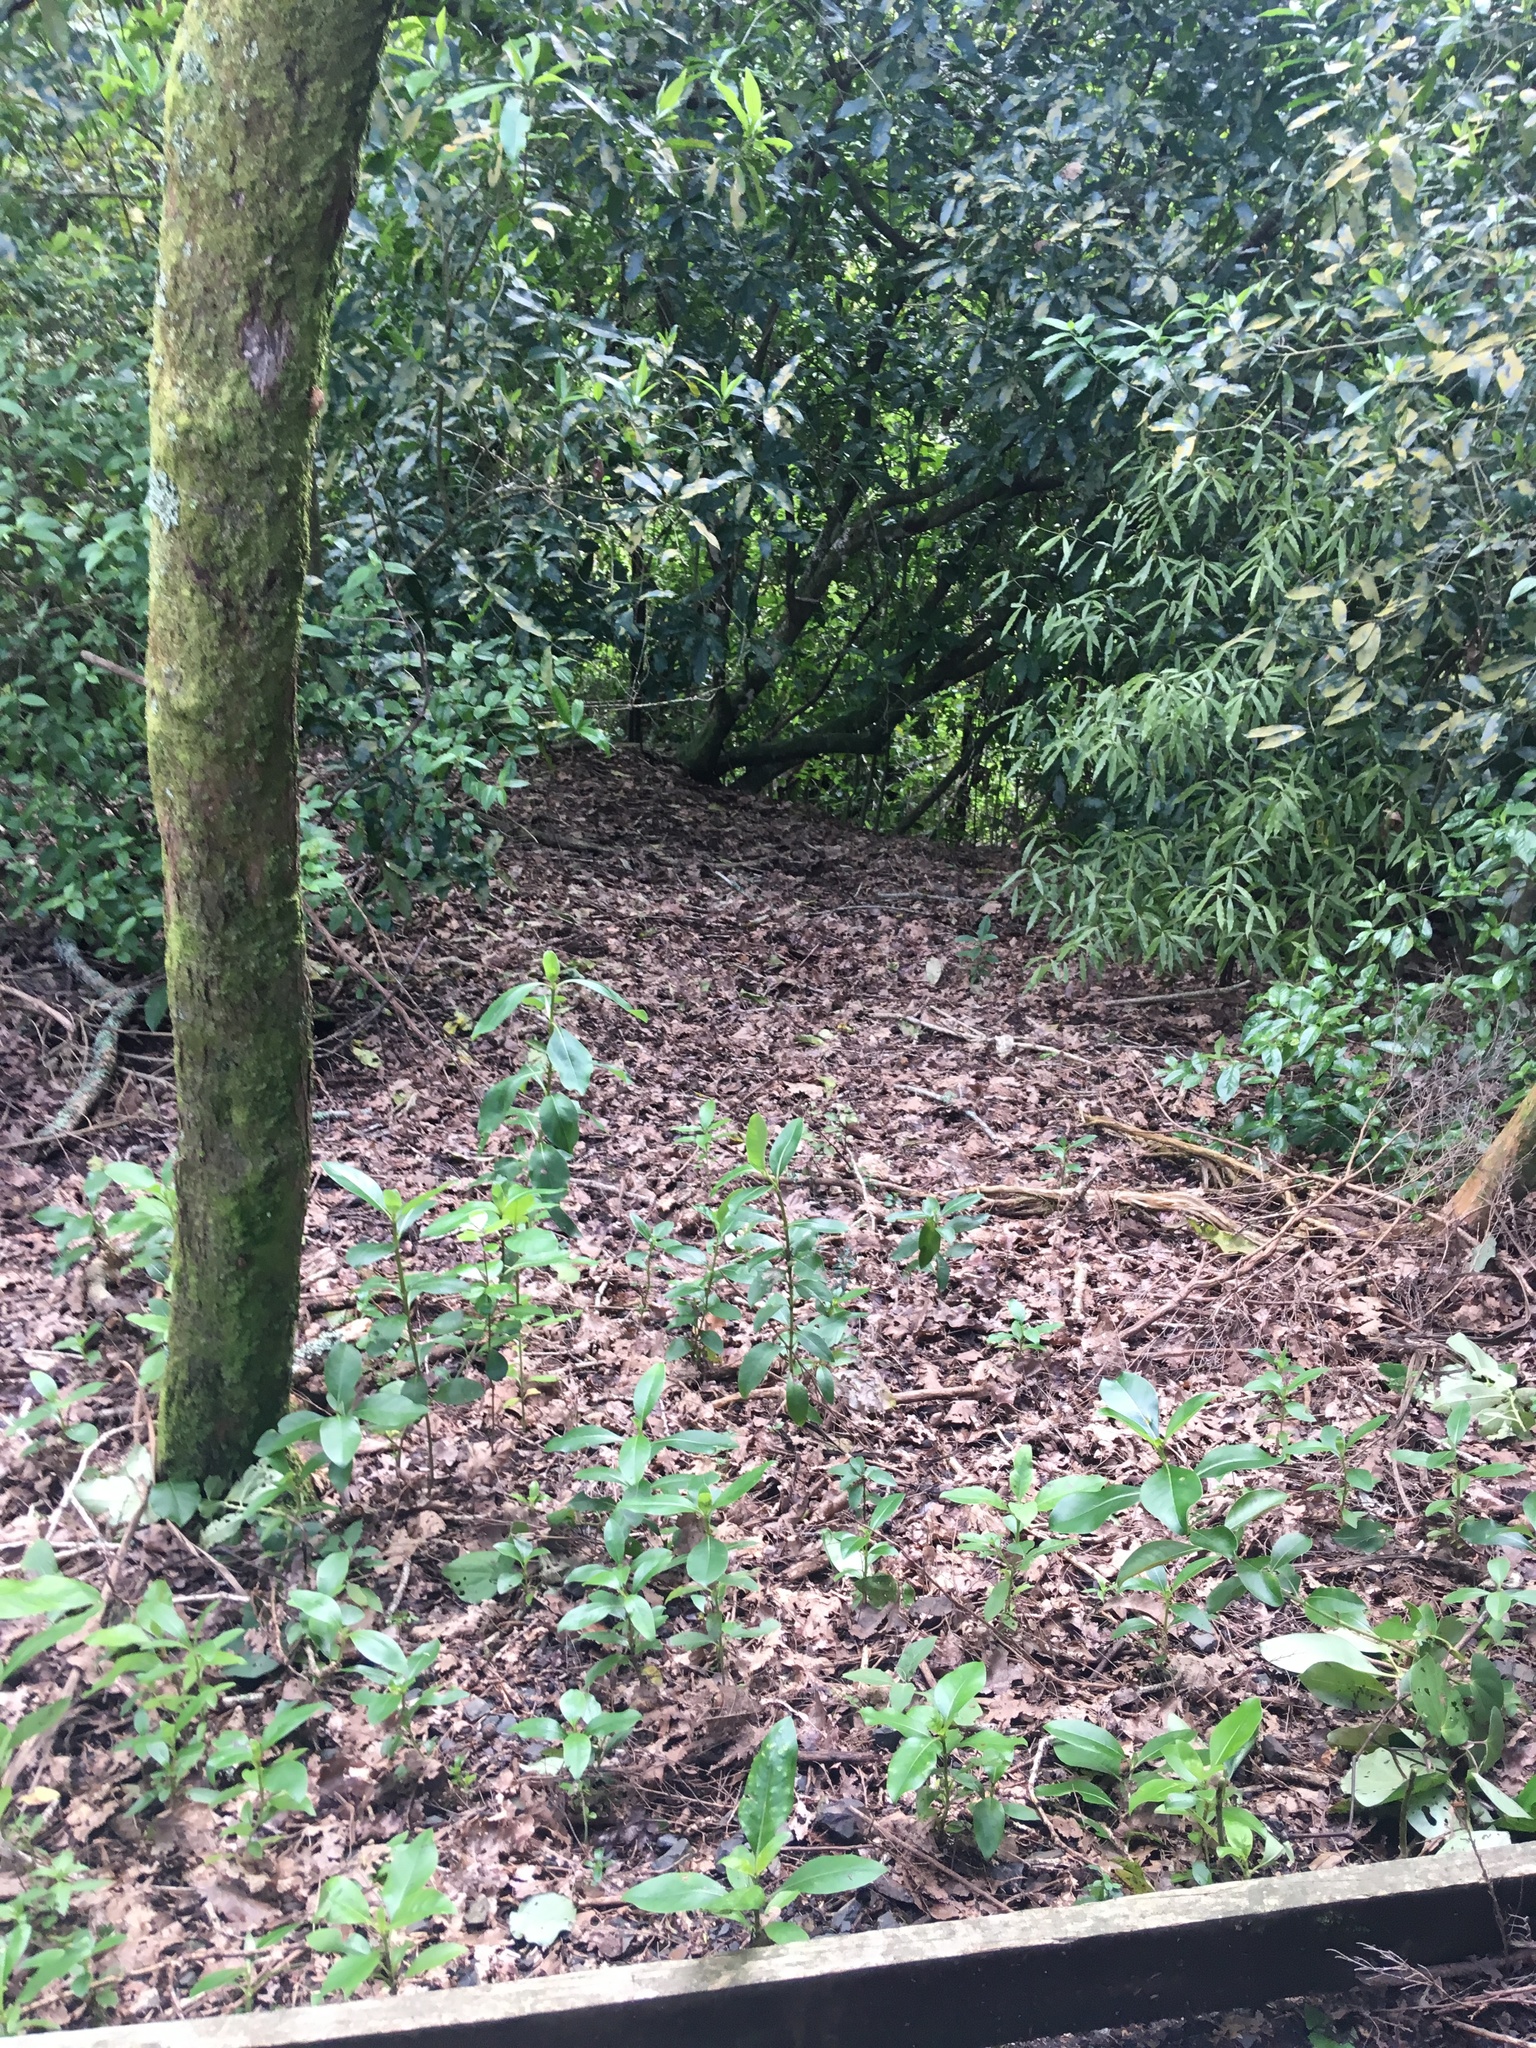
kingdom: Plantae
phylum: Tracheophyta
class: Magnoliopsida
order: Laurales
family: Lauraceae
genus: Beilschmiedia
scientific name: Beilschmiedia tawa
